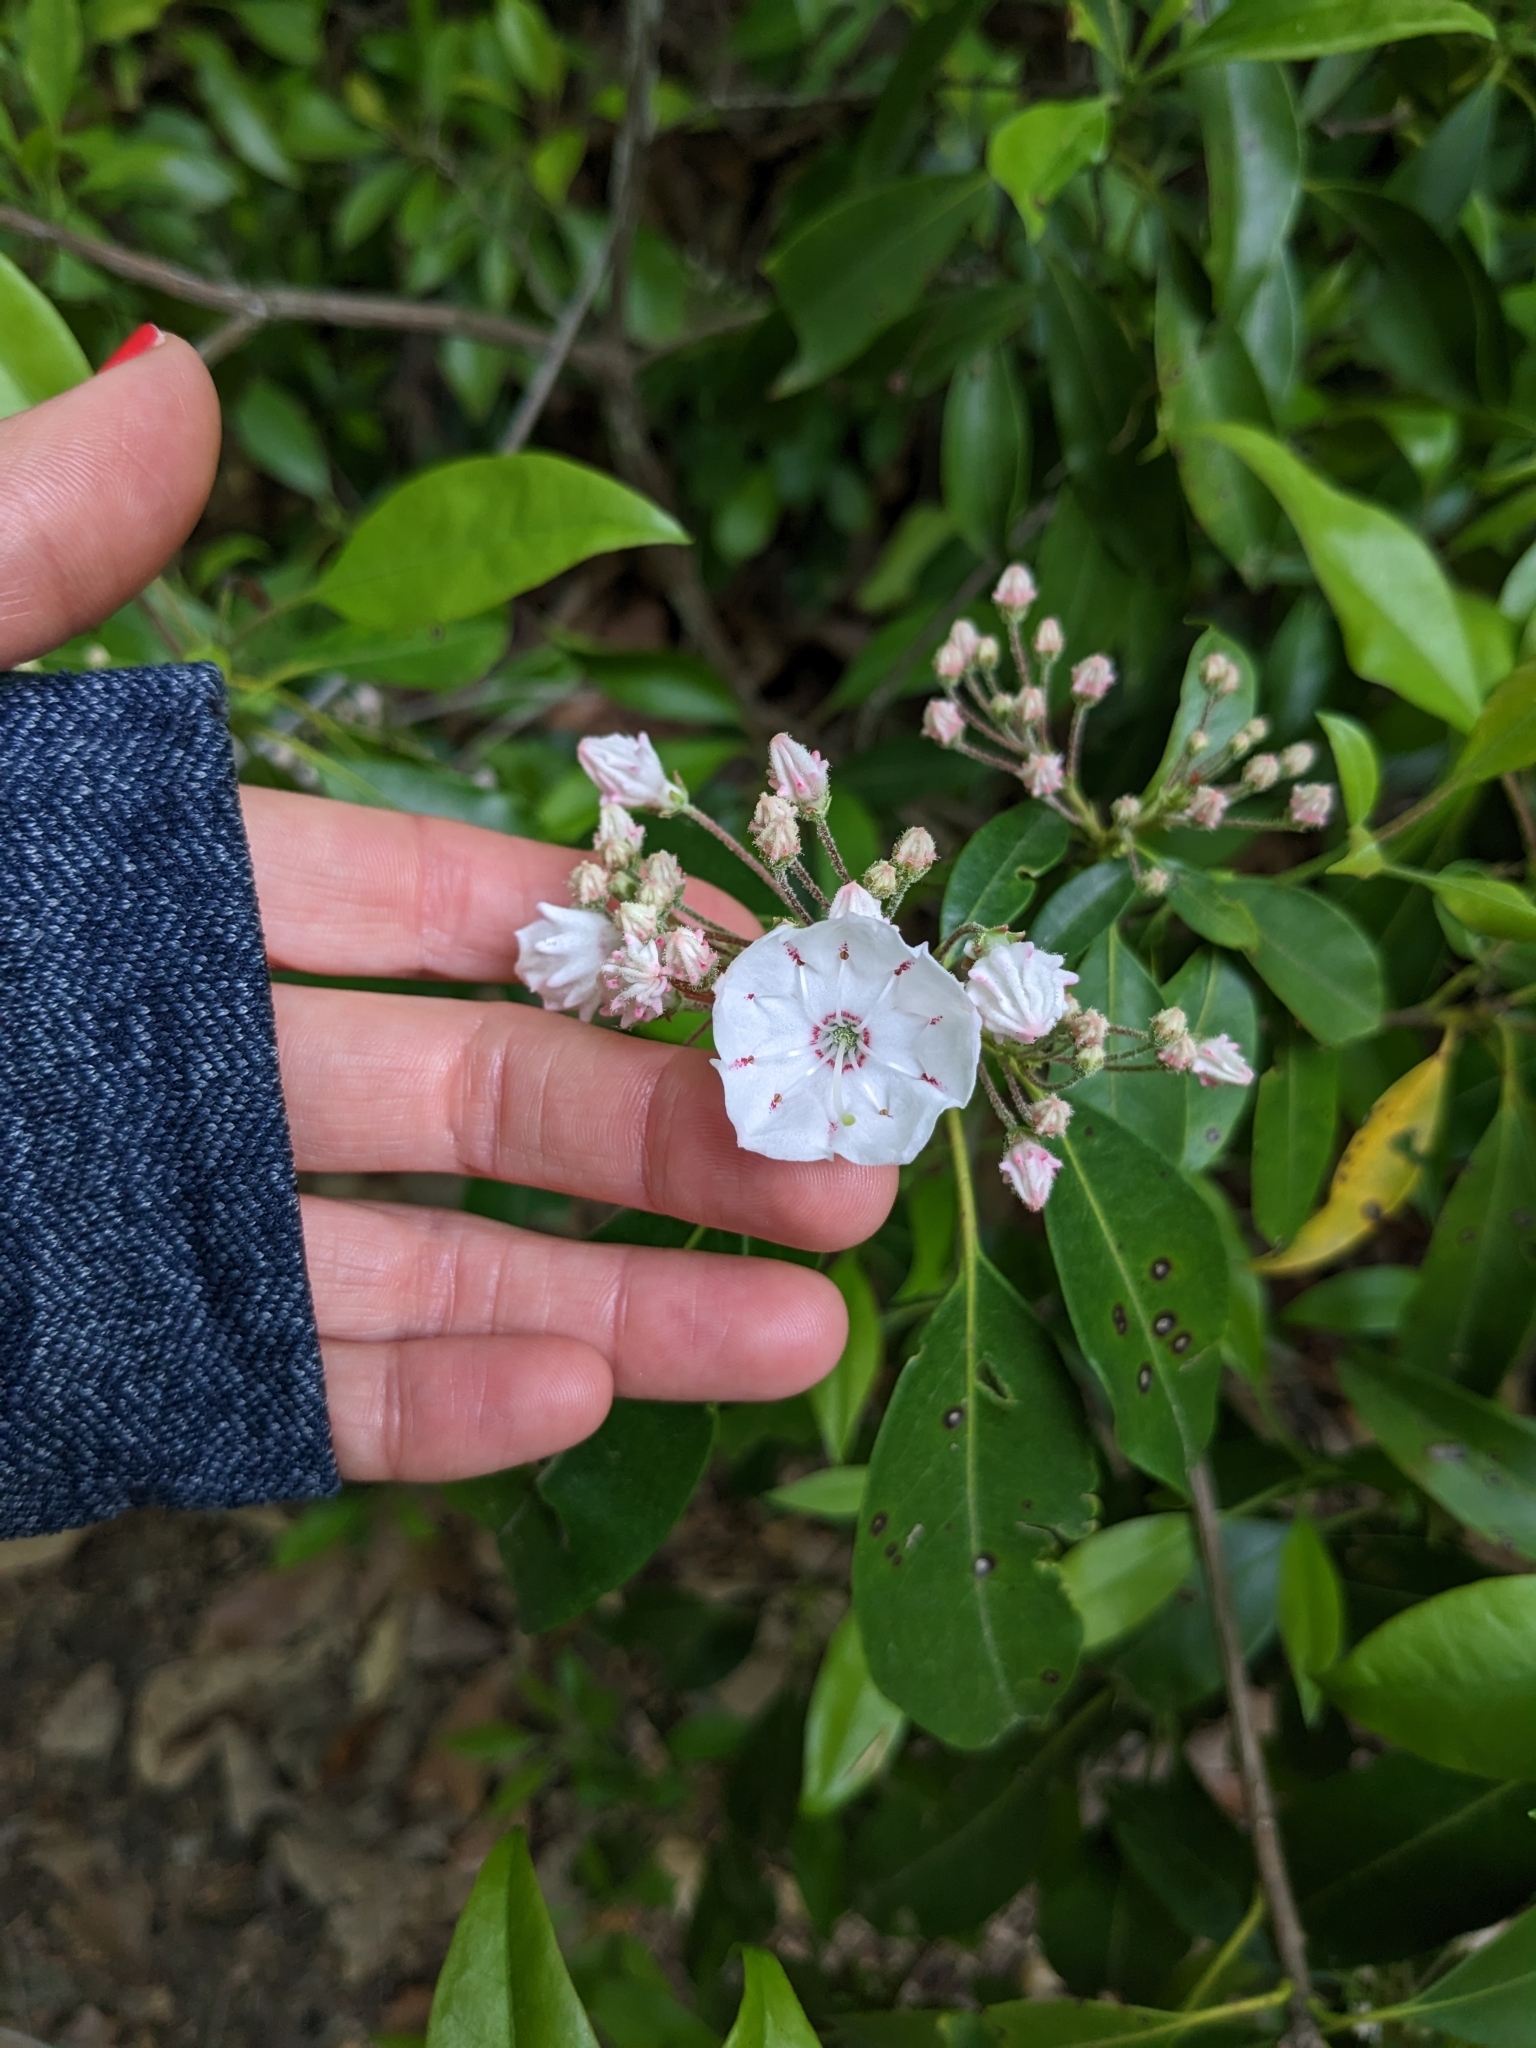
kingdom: Plantae
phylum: Tracheophyta
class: Magnoliopsida
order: Ericales
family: Ericaceae
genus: Kalmia
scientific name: Kalmia latifolia
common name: Mountain-laurel
